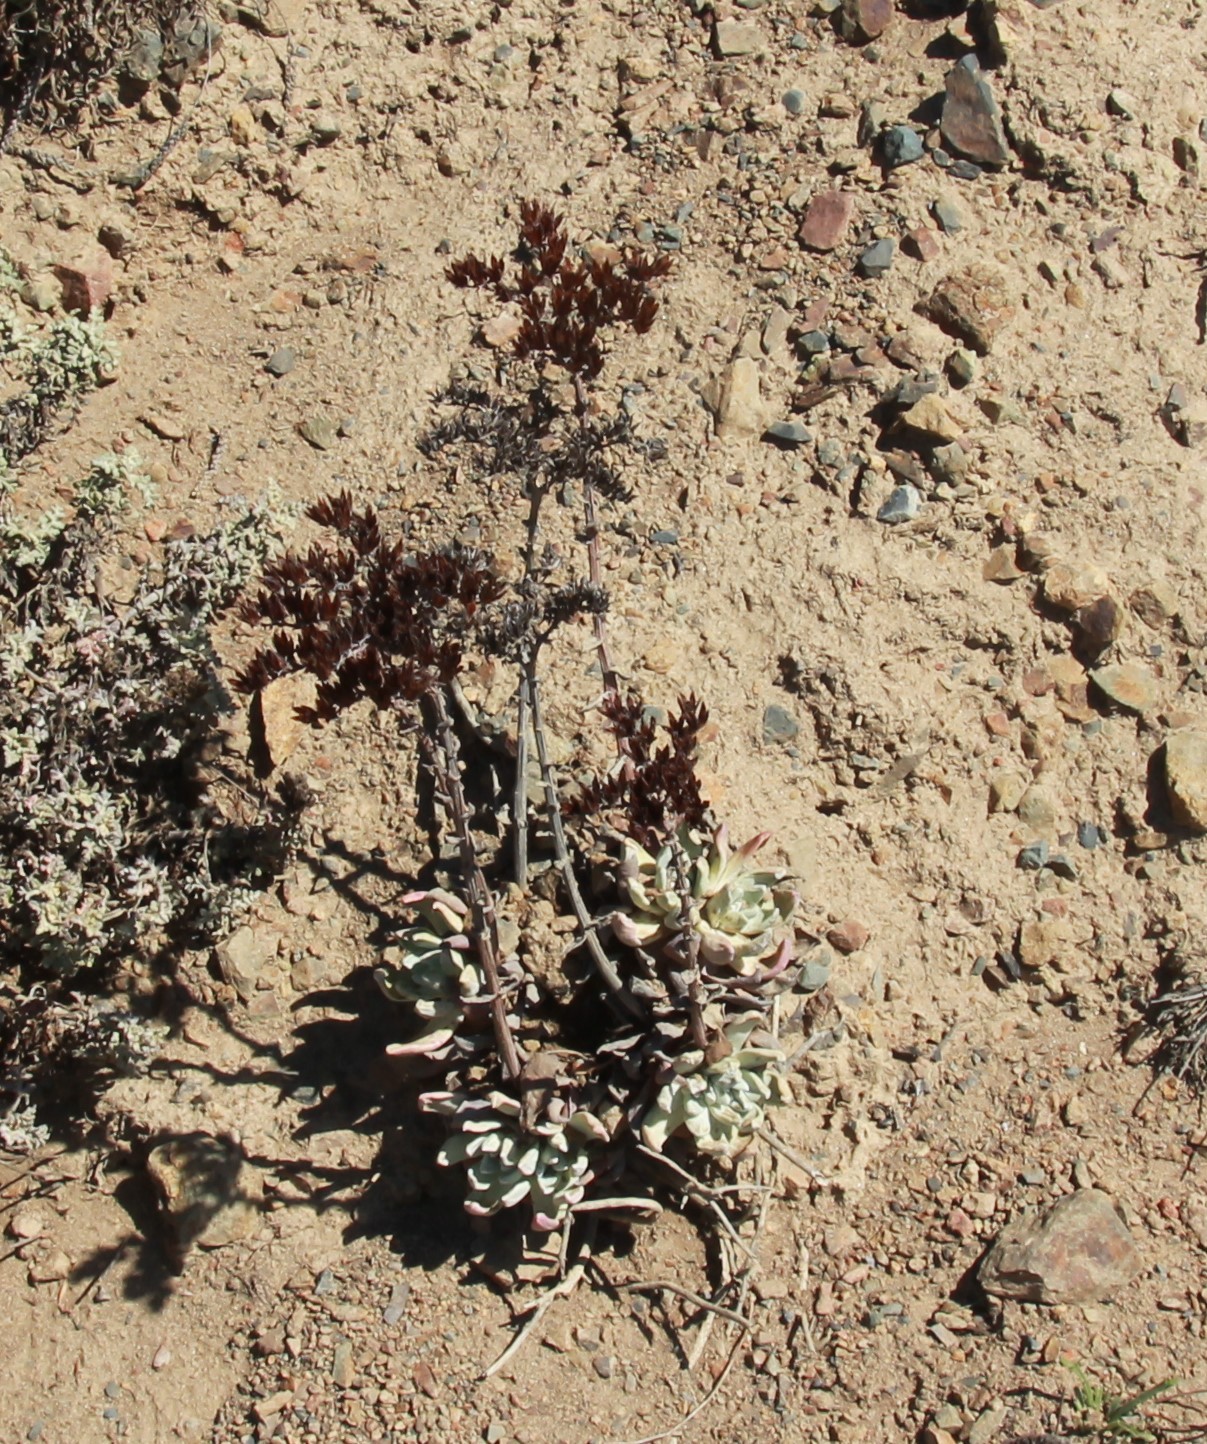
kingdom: Plantae
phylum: Tracheophyta
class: Magnoliopsida
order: Saxifragales
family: Crassulaceae
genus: Dudleya
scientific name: Dudleya caespitosa
